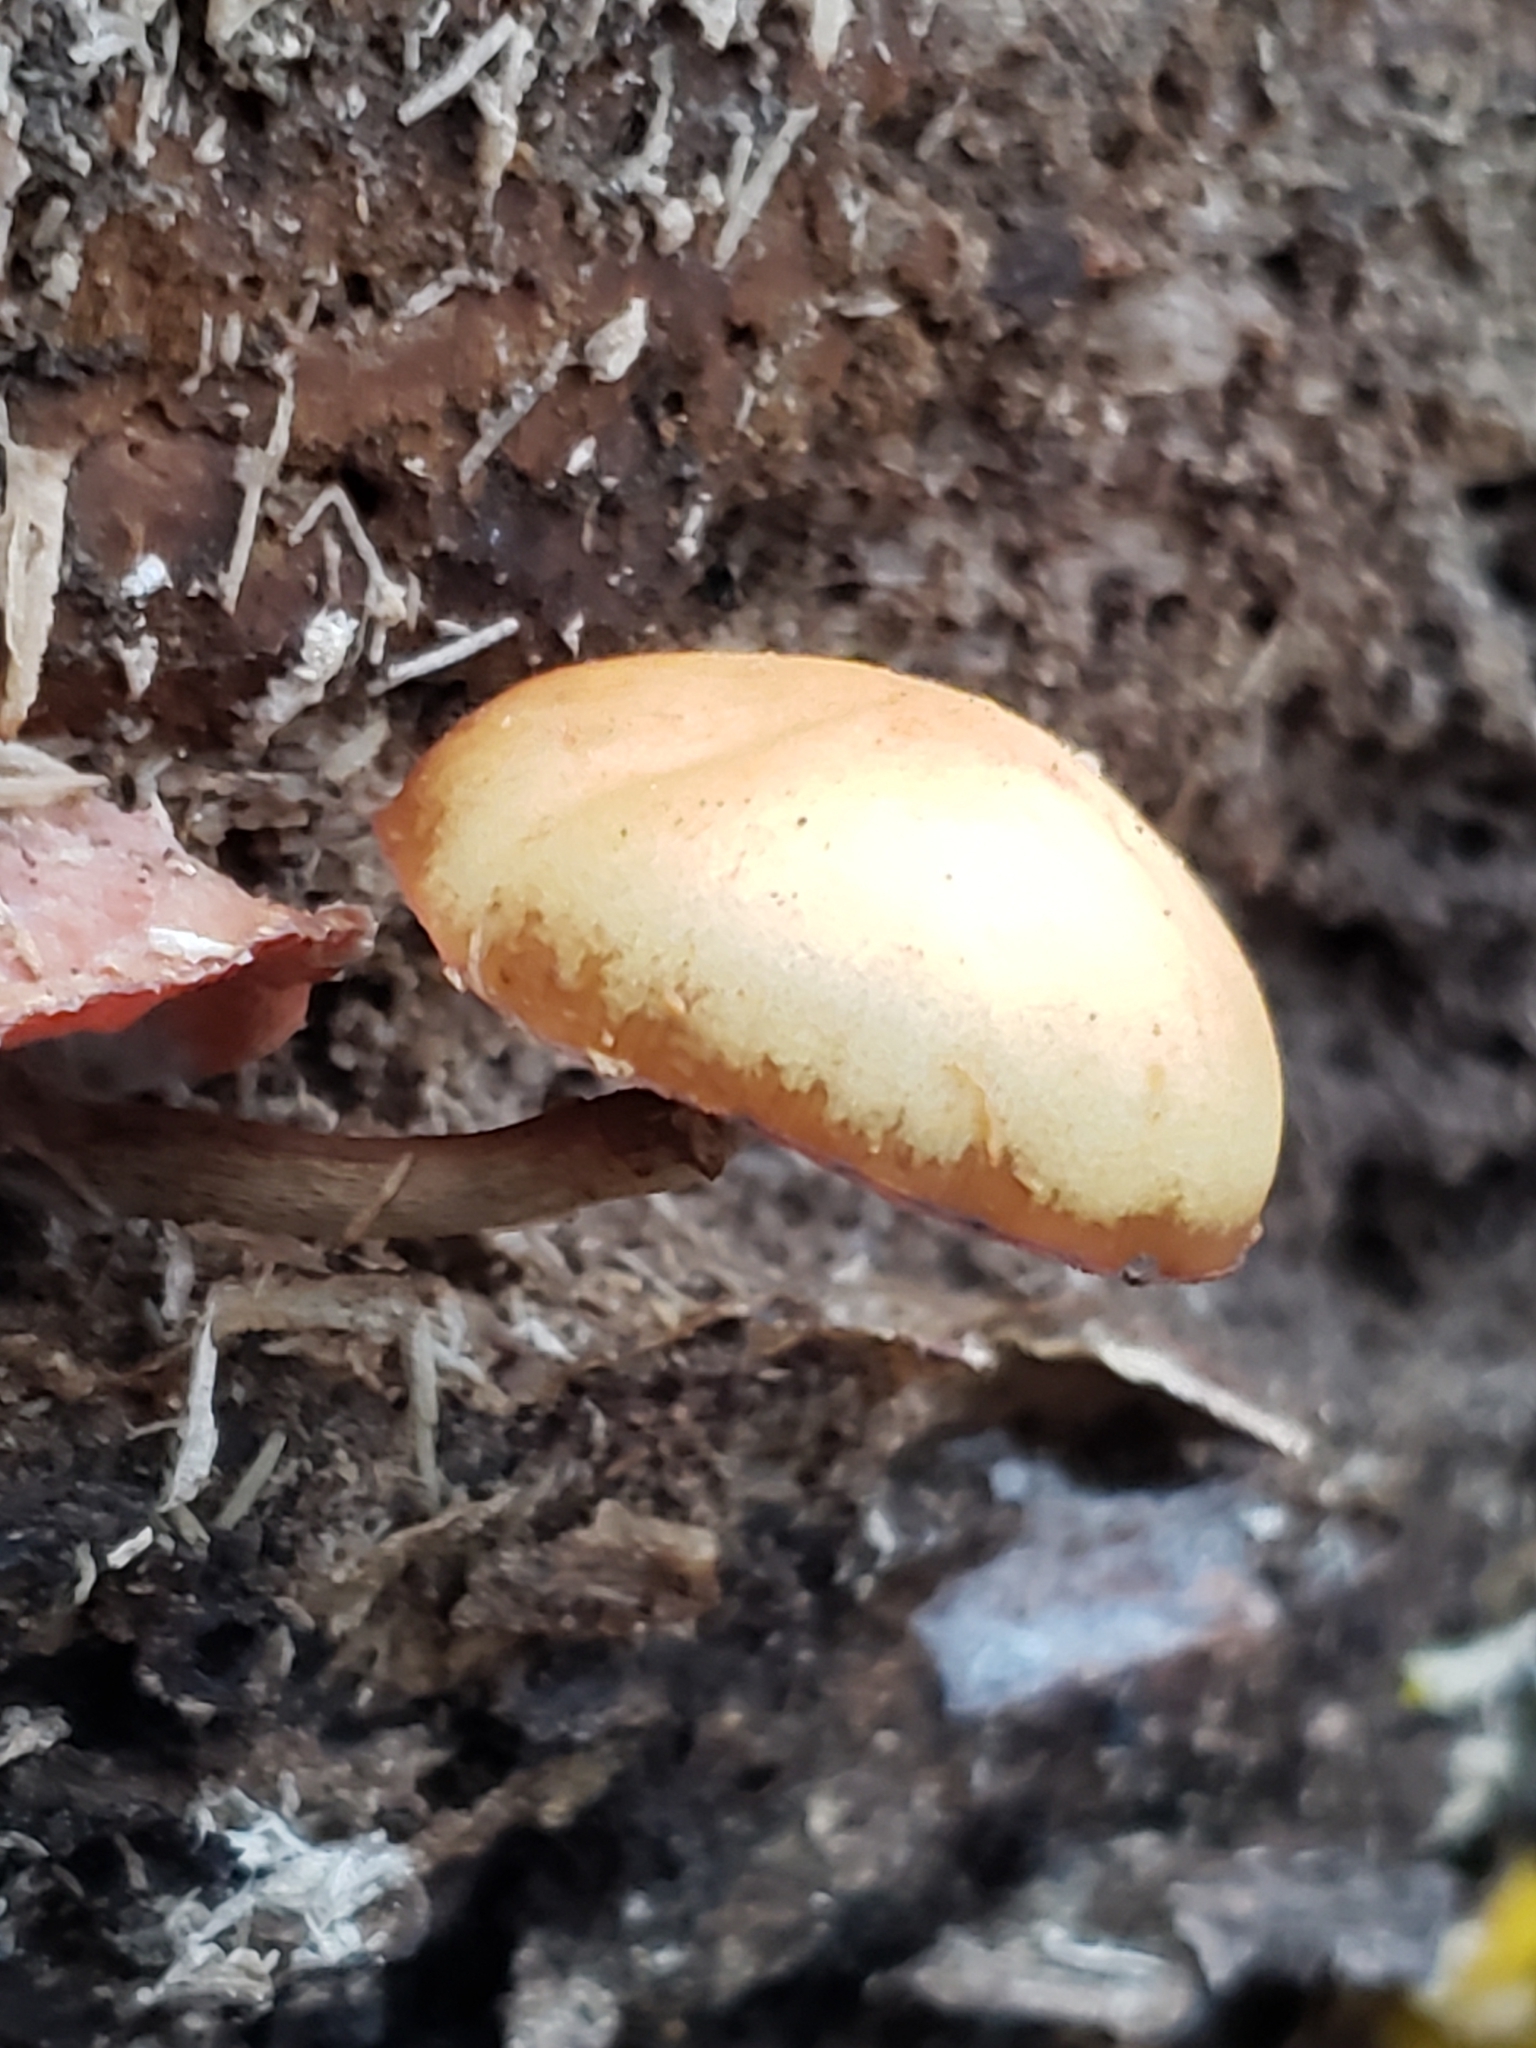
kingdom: Fungi
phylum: Basidiomycota
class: Agaricomycetes
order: Agaricales
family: Hymenogastraceae
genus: Galerina
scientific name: Galerina marginata
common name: Funeral bell
